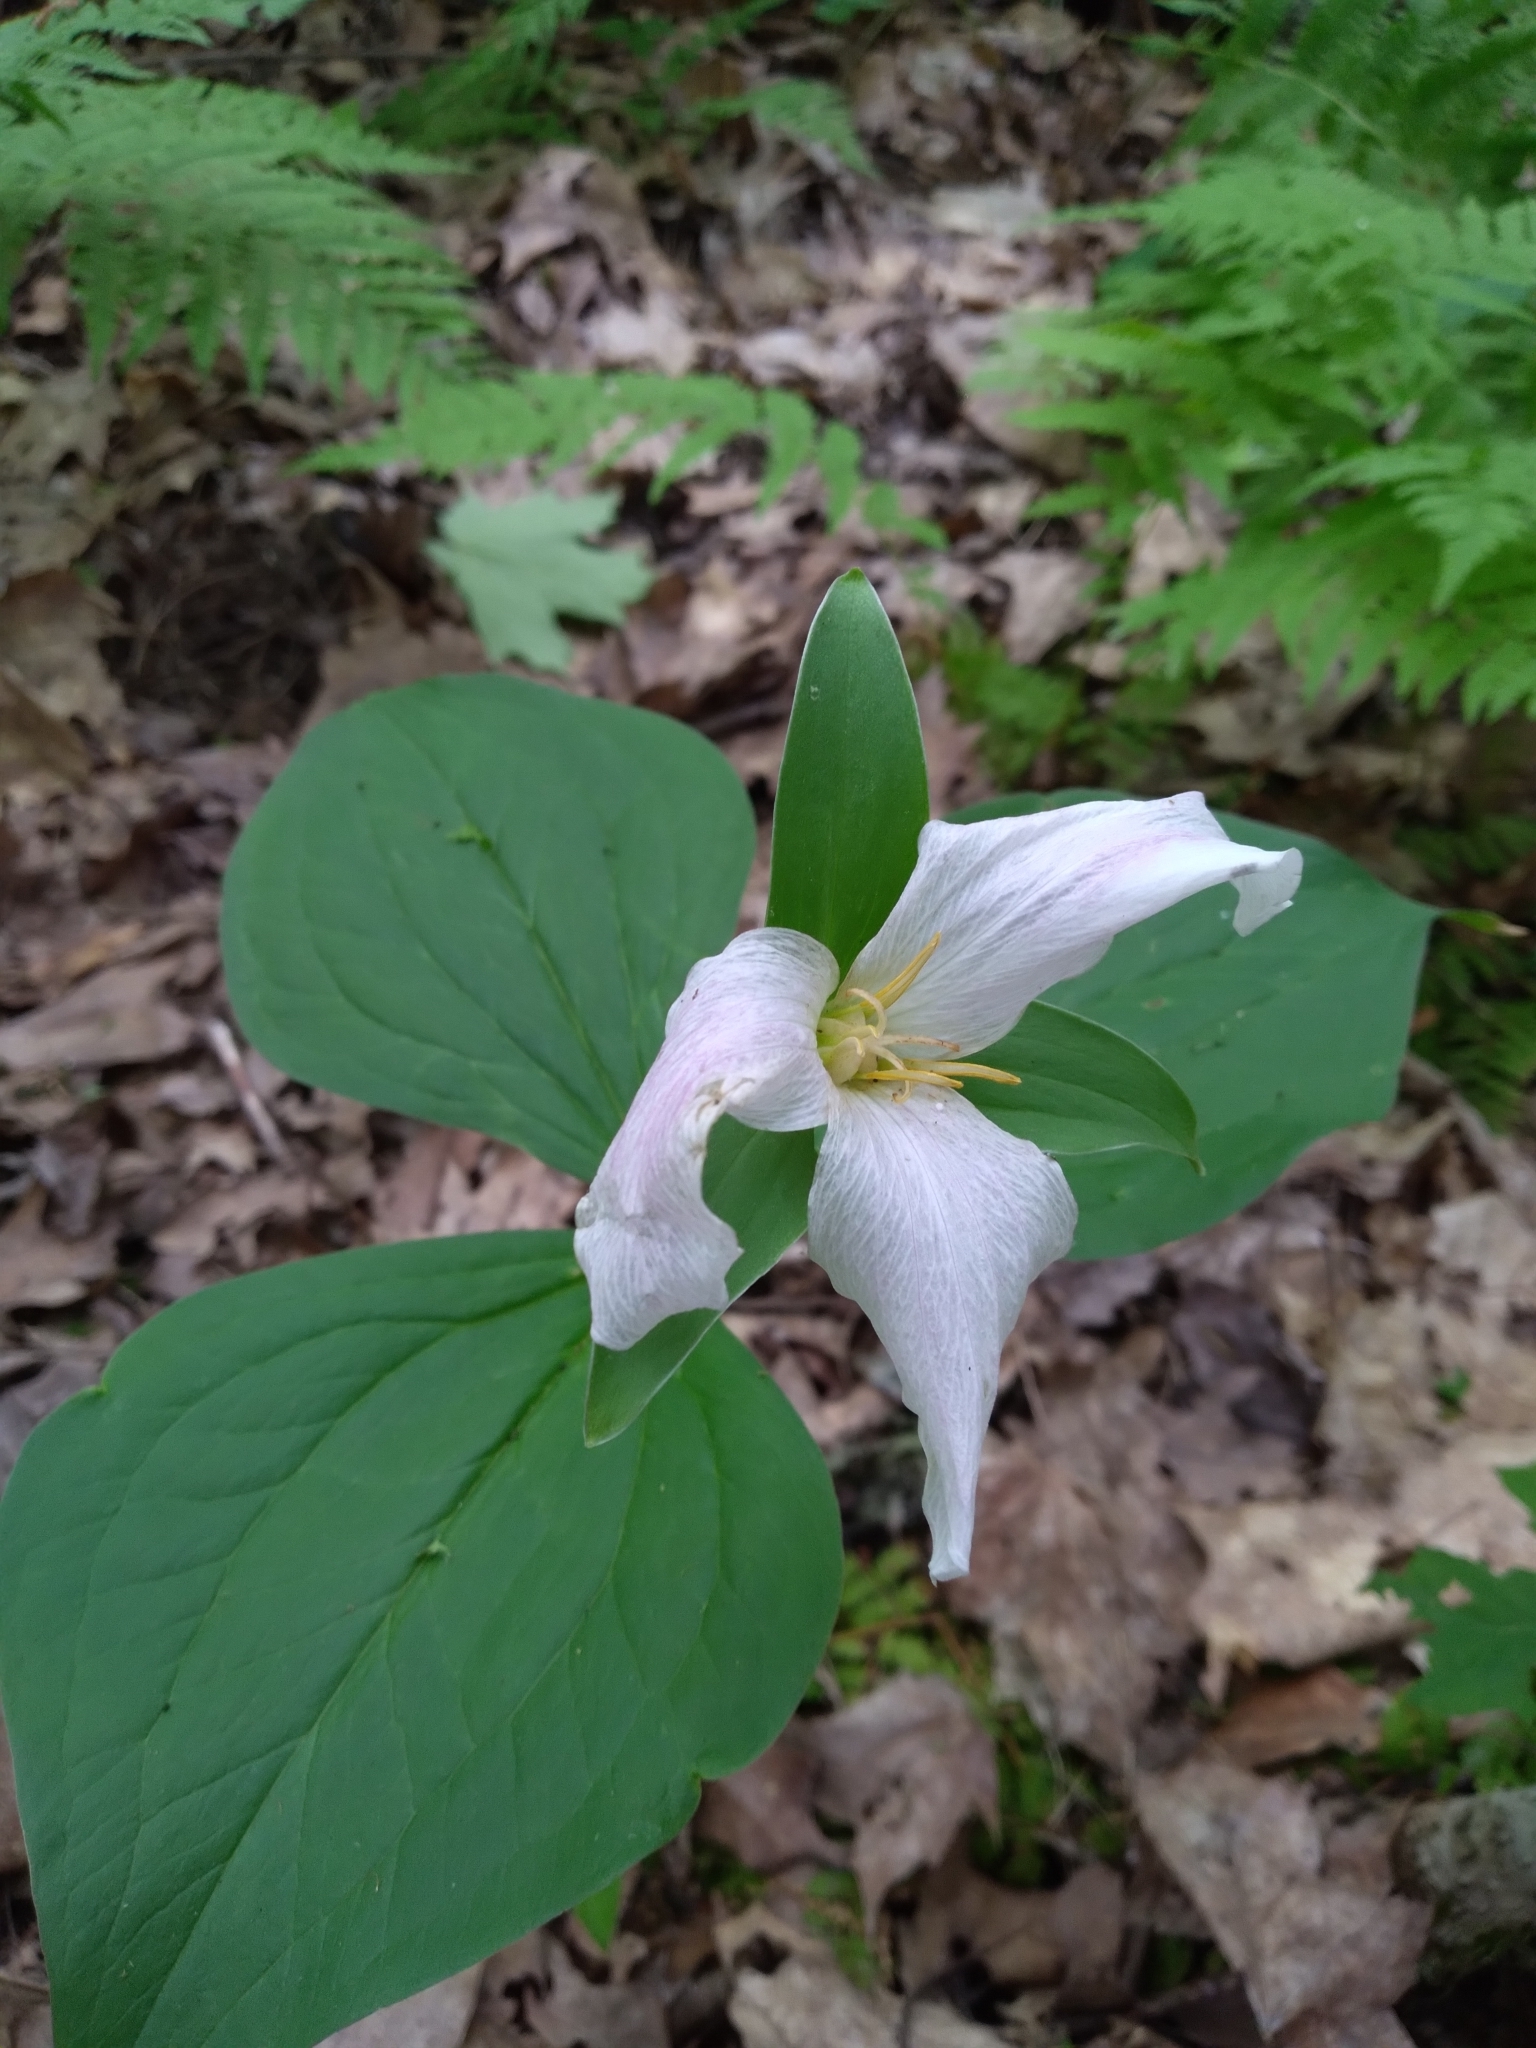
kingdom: Plantae
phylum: Tracheophyta
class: Liliopsida
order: Liliales
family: Melanthiaceae
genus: Trillium
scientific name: Trillium grandiflorum
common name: Great white trillium
